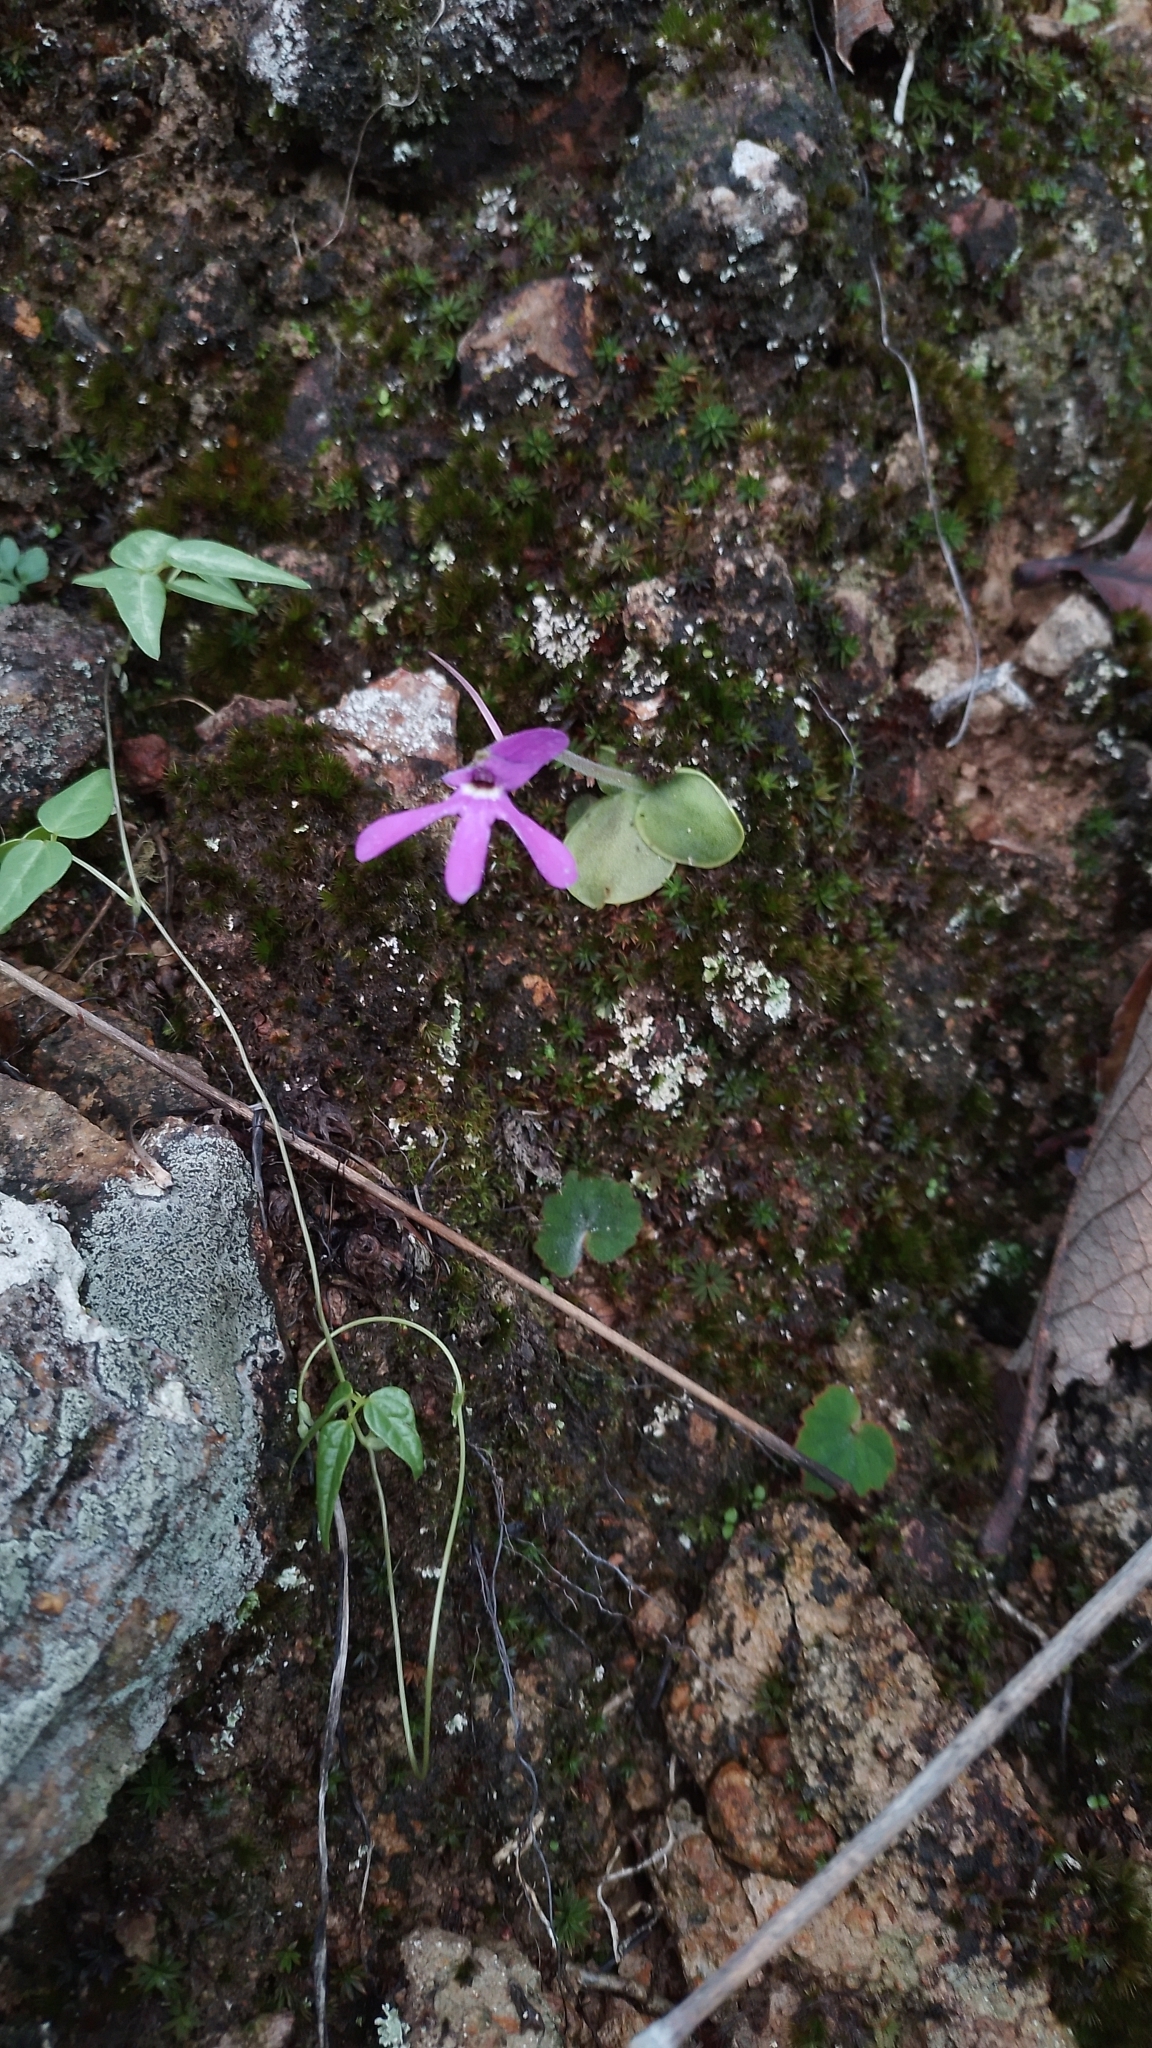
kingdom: Plantae
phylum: Tracheophyta
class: Magnoliopsida
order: Lamiales
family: Lentibulariaceae
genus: Pinguicula
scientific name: Pinguicula oblongiloba
